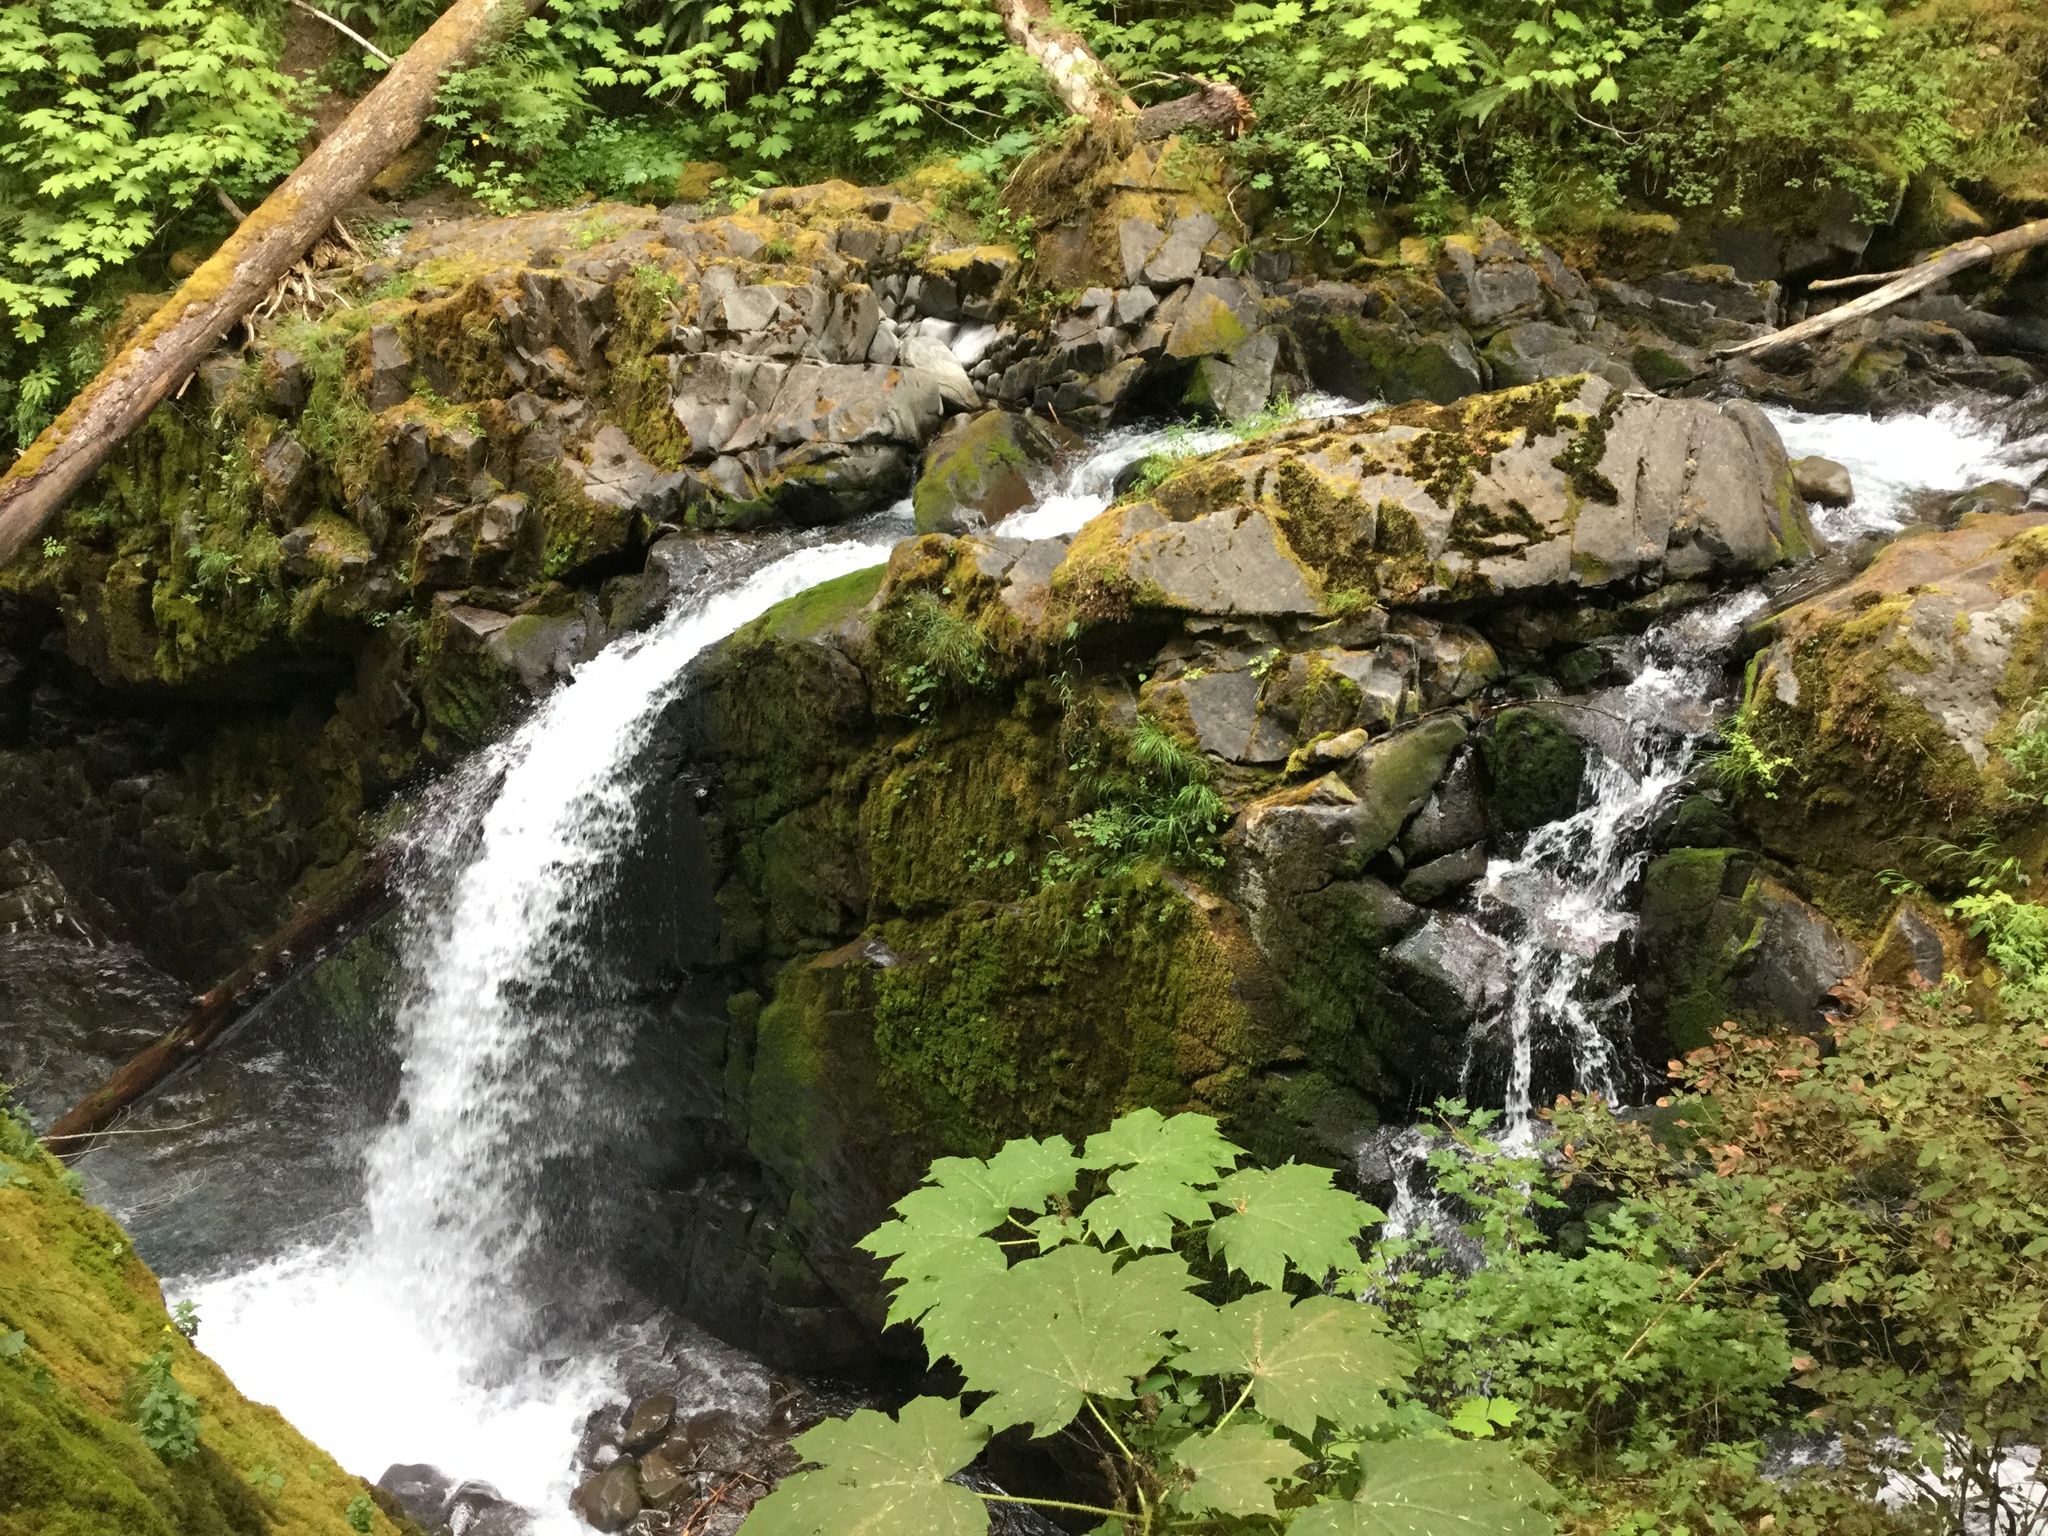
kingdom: Plantae
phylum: Tracheophyta
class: Magnoliopsida
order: Apiales
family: Araliaceae
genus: Oplopanax
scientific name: Oplopanax horridus
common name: Devil's walking-stick
